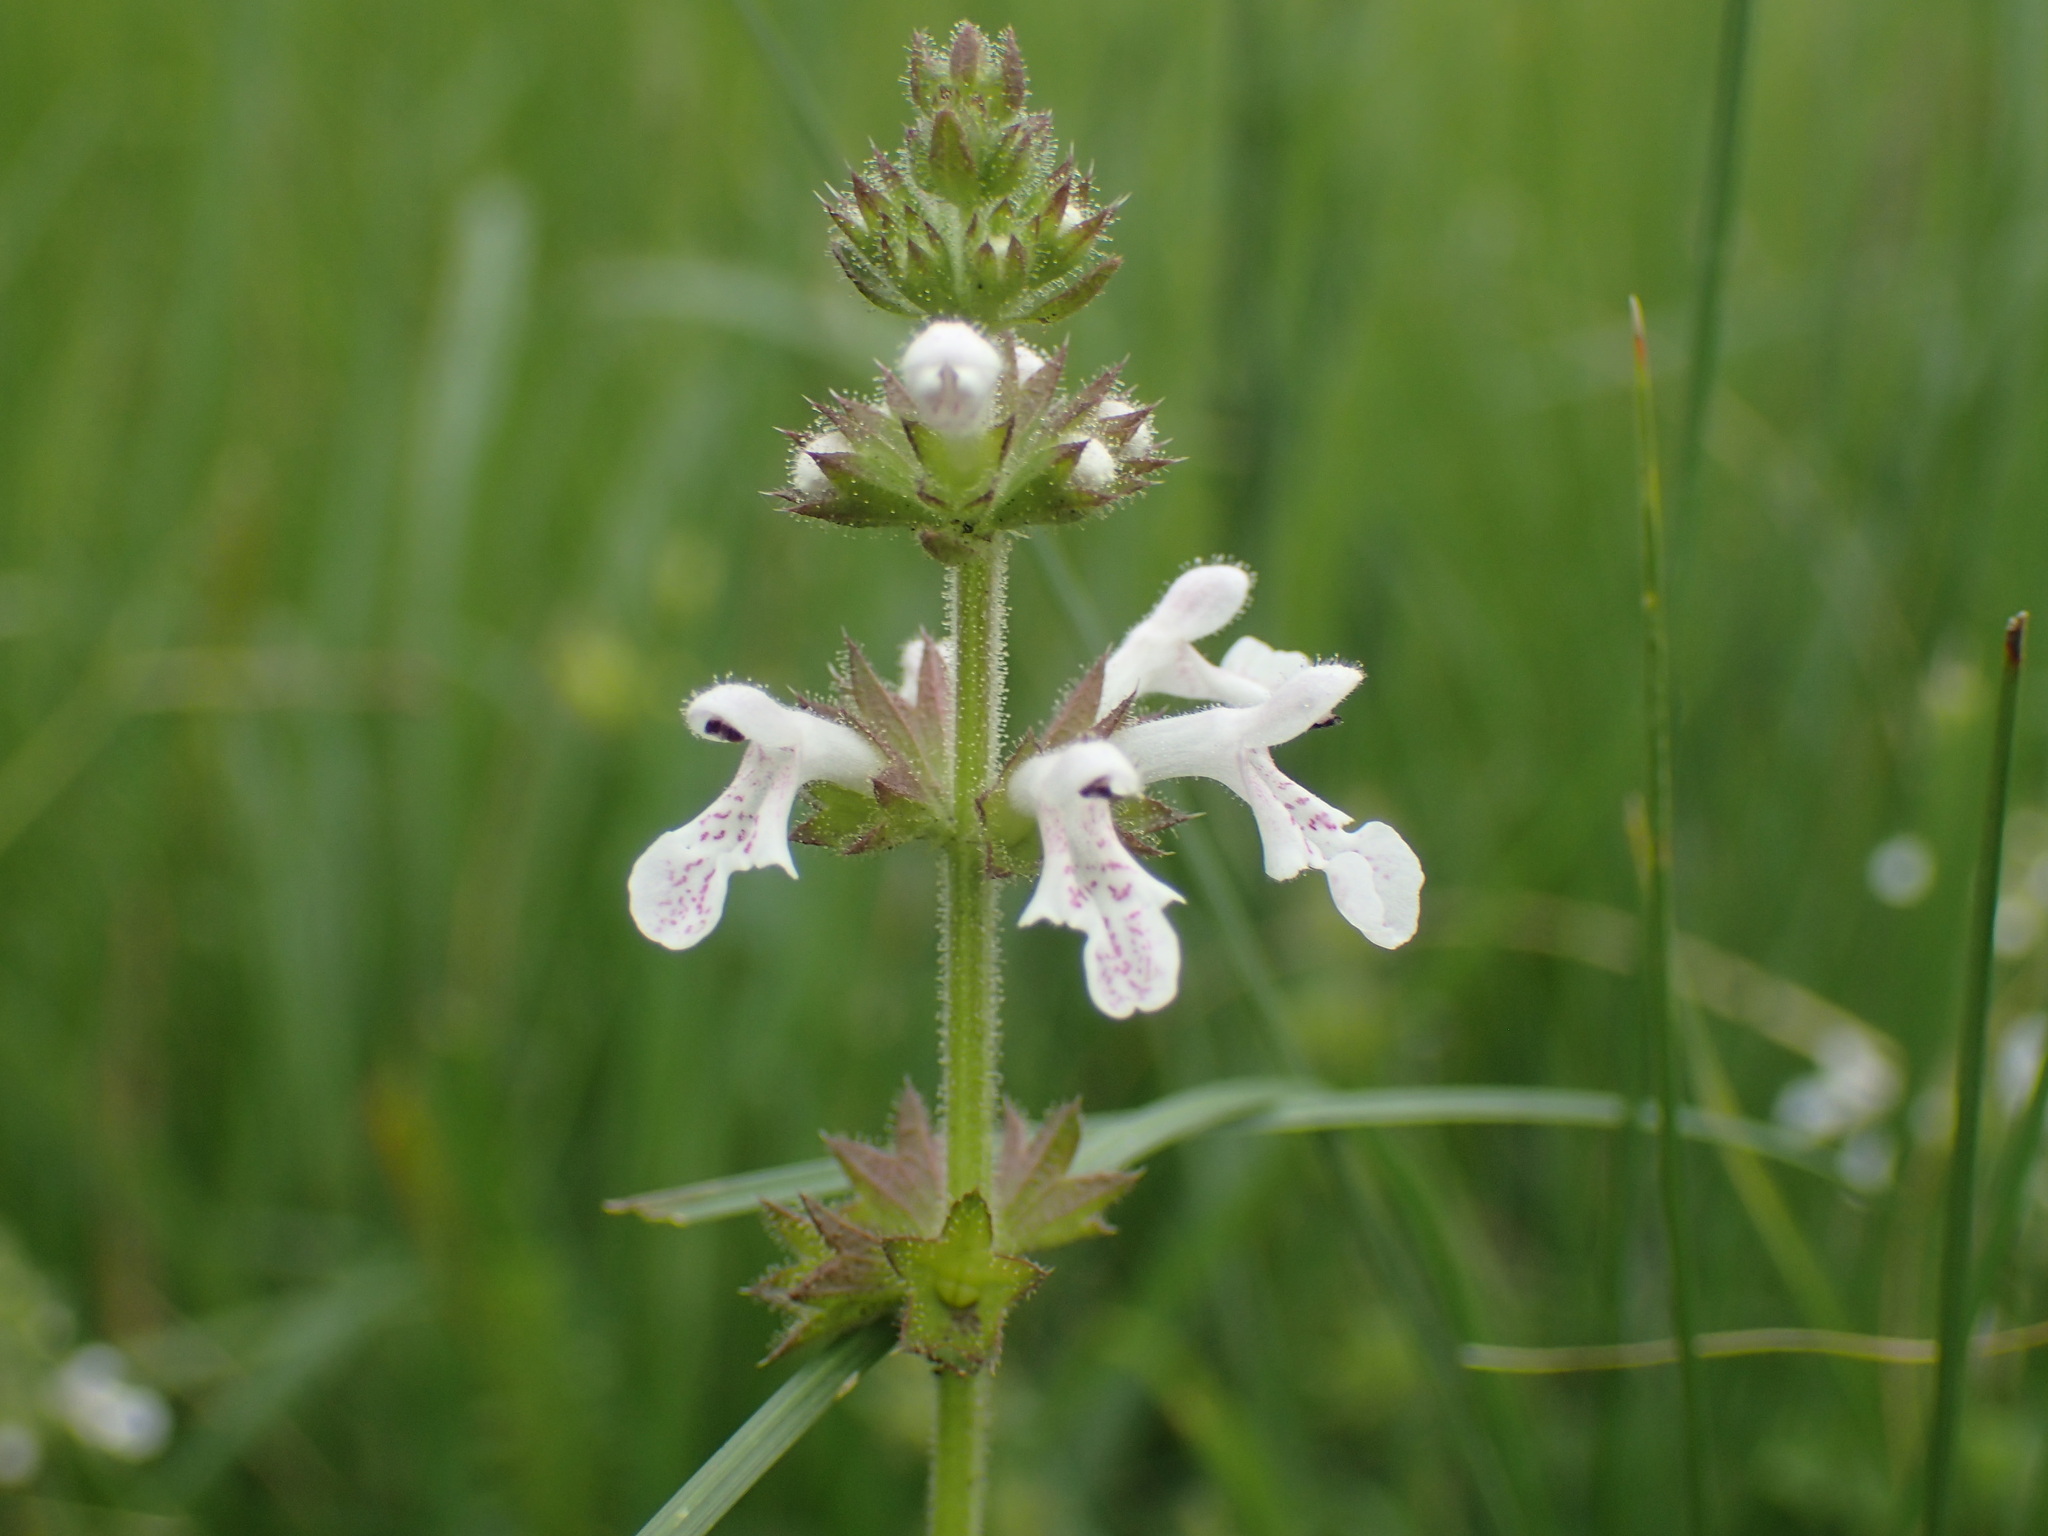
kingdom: Plantae
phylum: Tracheophyta
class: Magnoliopsida
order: Lamiales
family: Lamiaceae
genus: Stachys
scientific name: Stachys aethiopica
